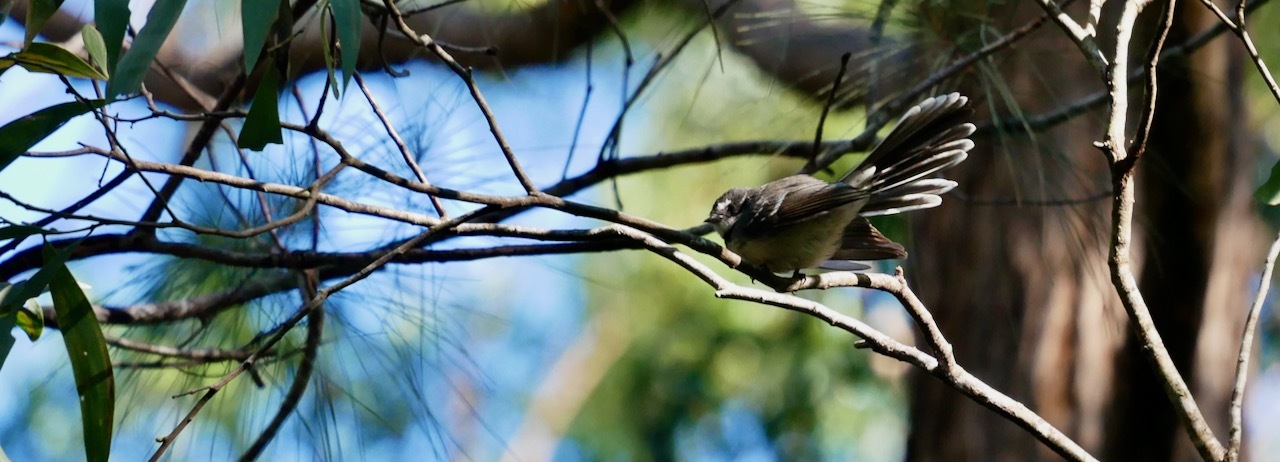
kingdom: Animalia
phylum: Chordata
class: Aves
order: Passeriformes
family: Rhipiduridae
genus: Rhipidura
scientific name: Rhipidura albiscapa
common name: Grey fantail
